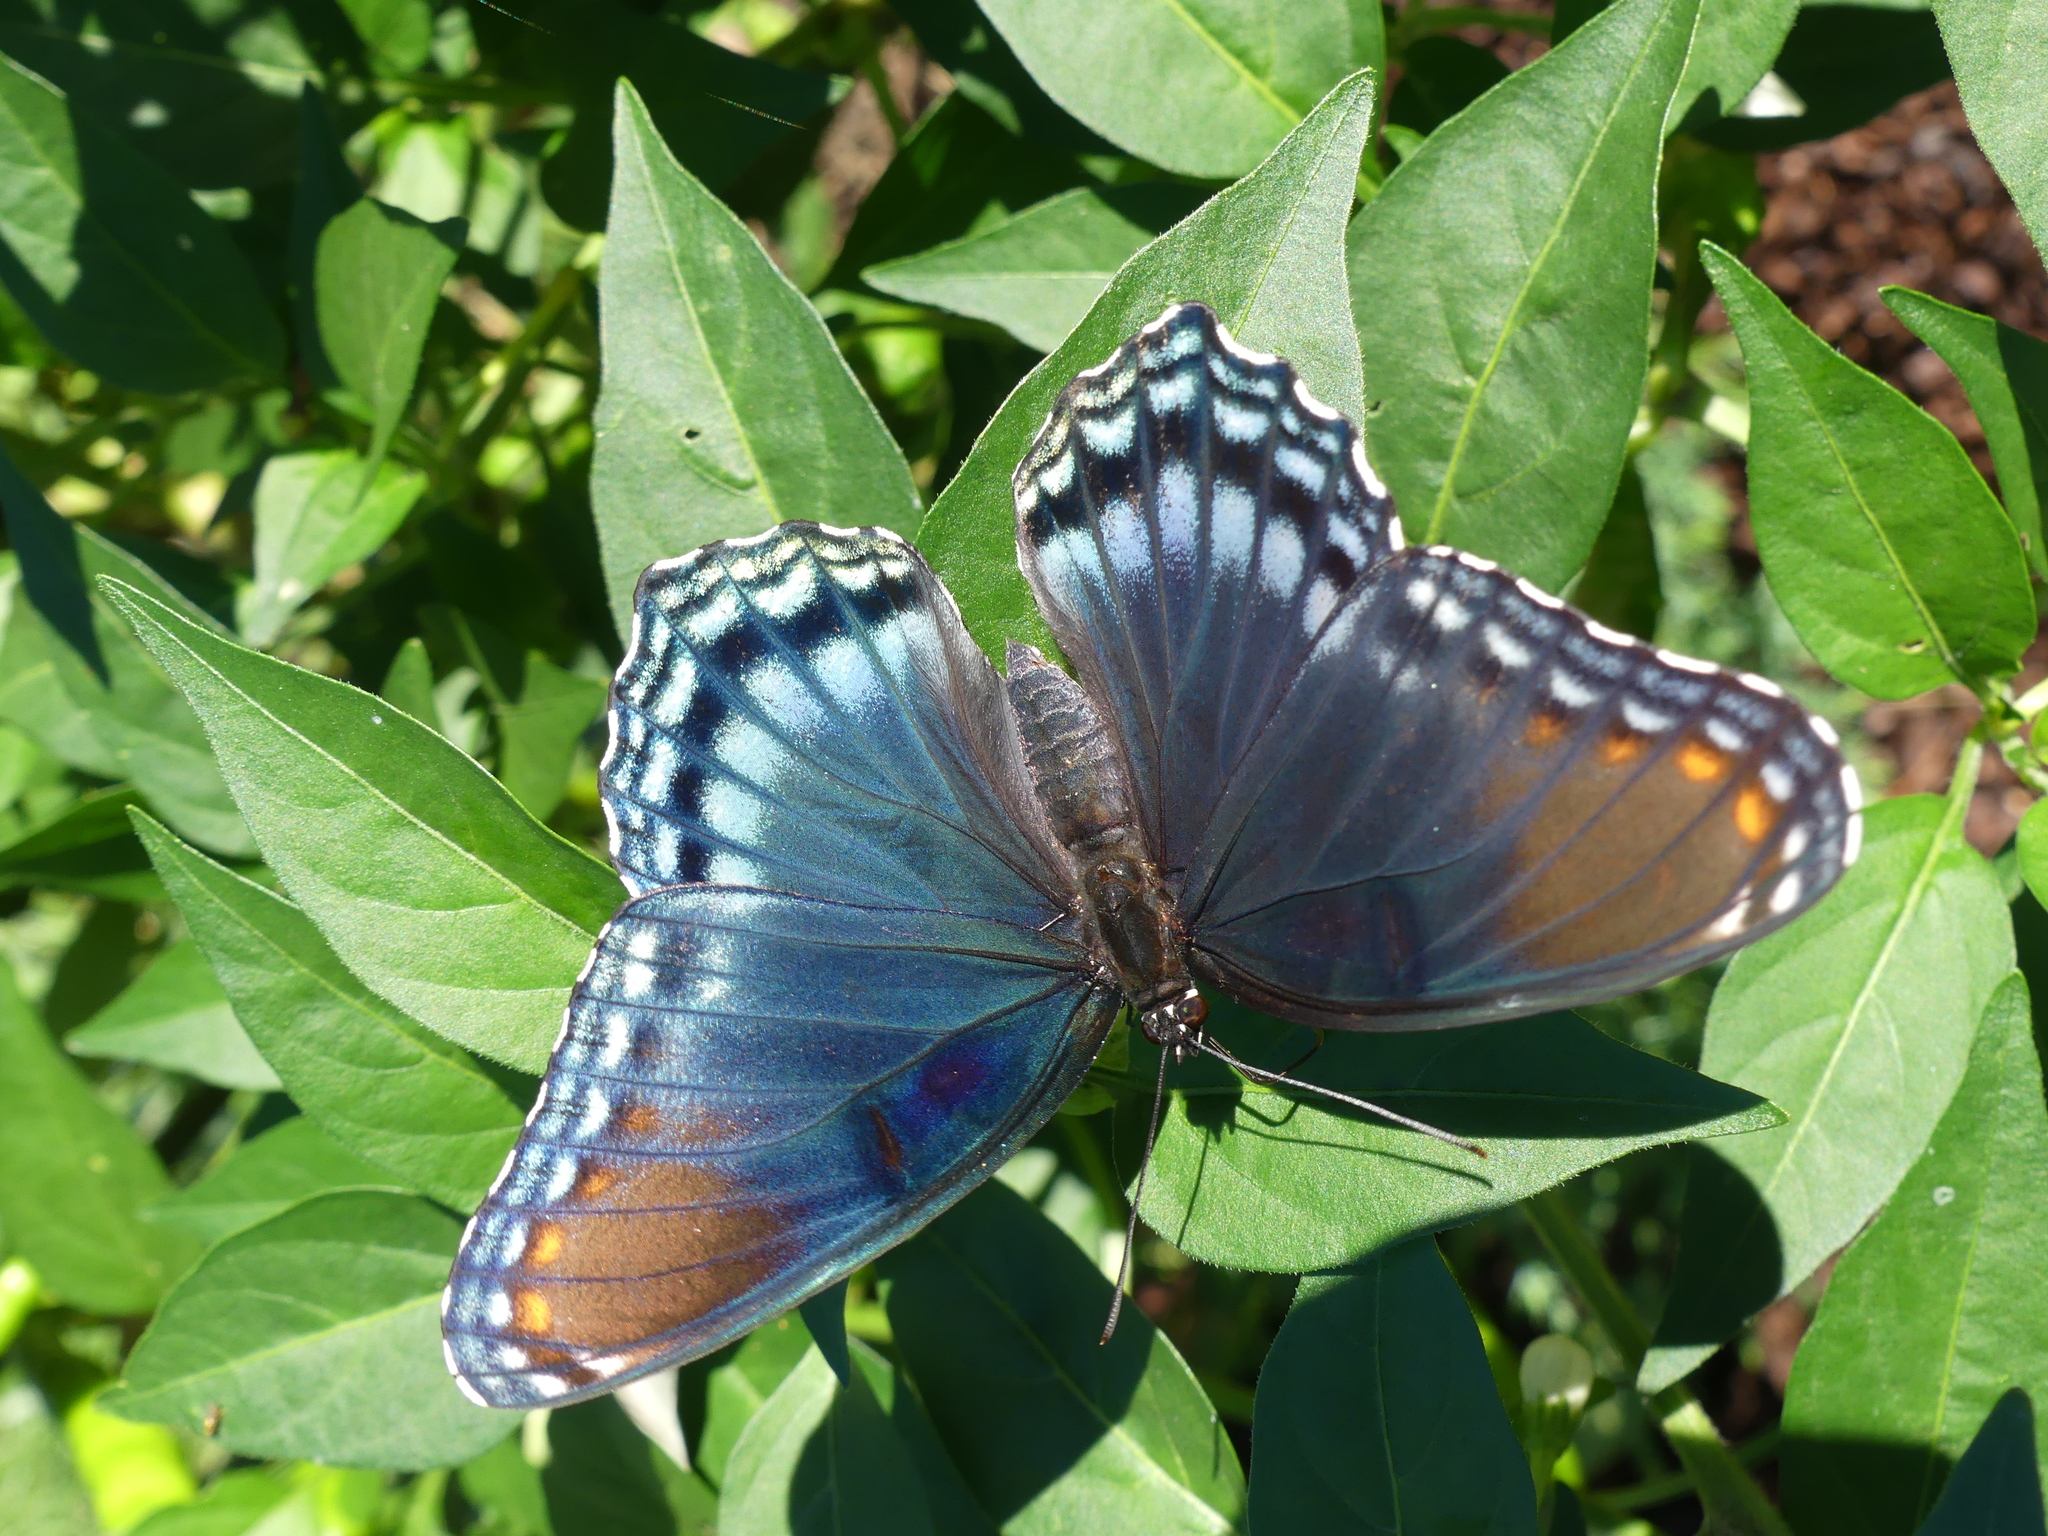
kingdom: Animalia
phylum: Arthropoda
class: Insecta
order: Lepidoptera
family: Nymphalidae
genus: Limenitis
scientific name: Limenitis astyanax
